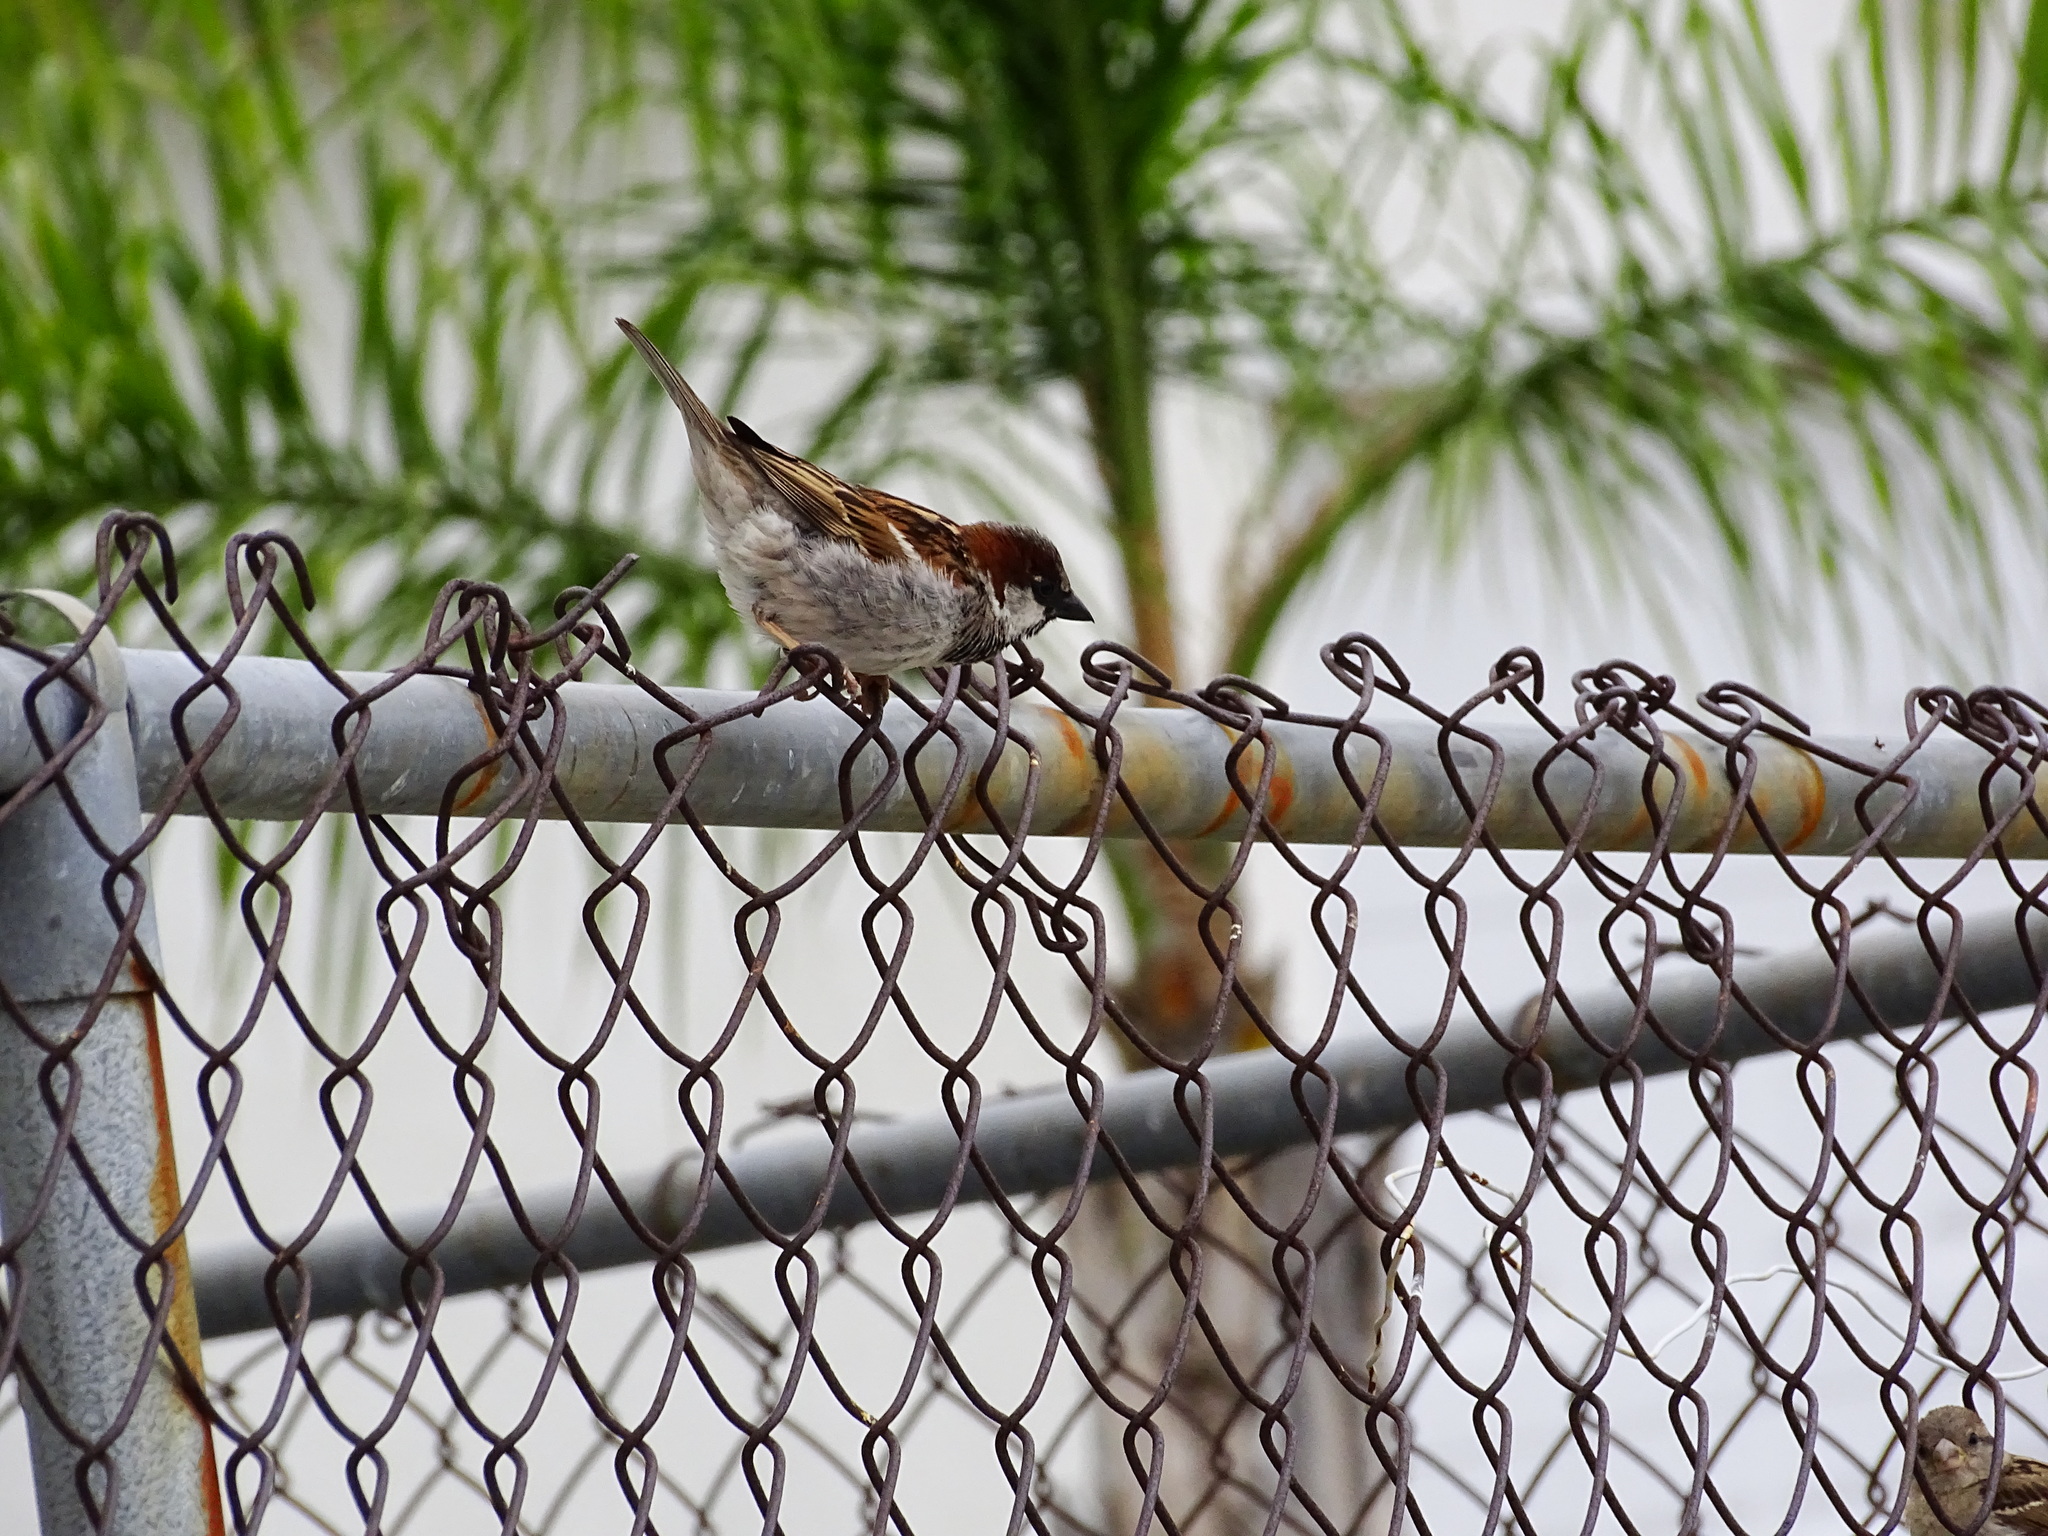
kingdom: Animalia
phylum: Chordata
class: Aves
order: Passeriformes
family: Passeridae
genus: Passer
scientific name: Passer domesticus
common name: House sparrow
